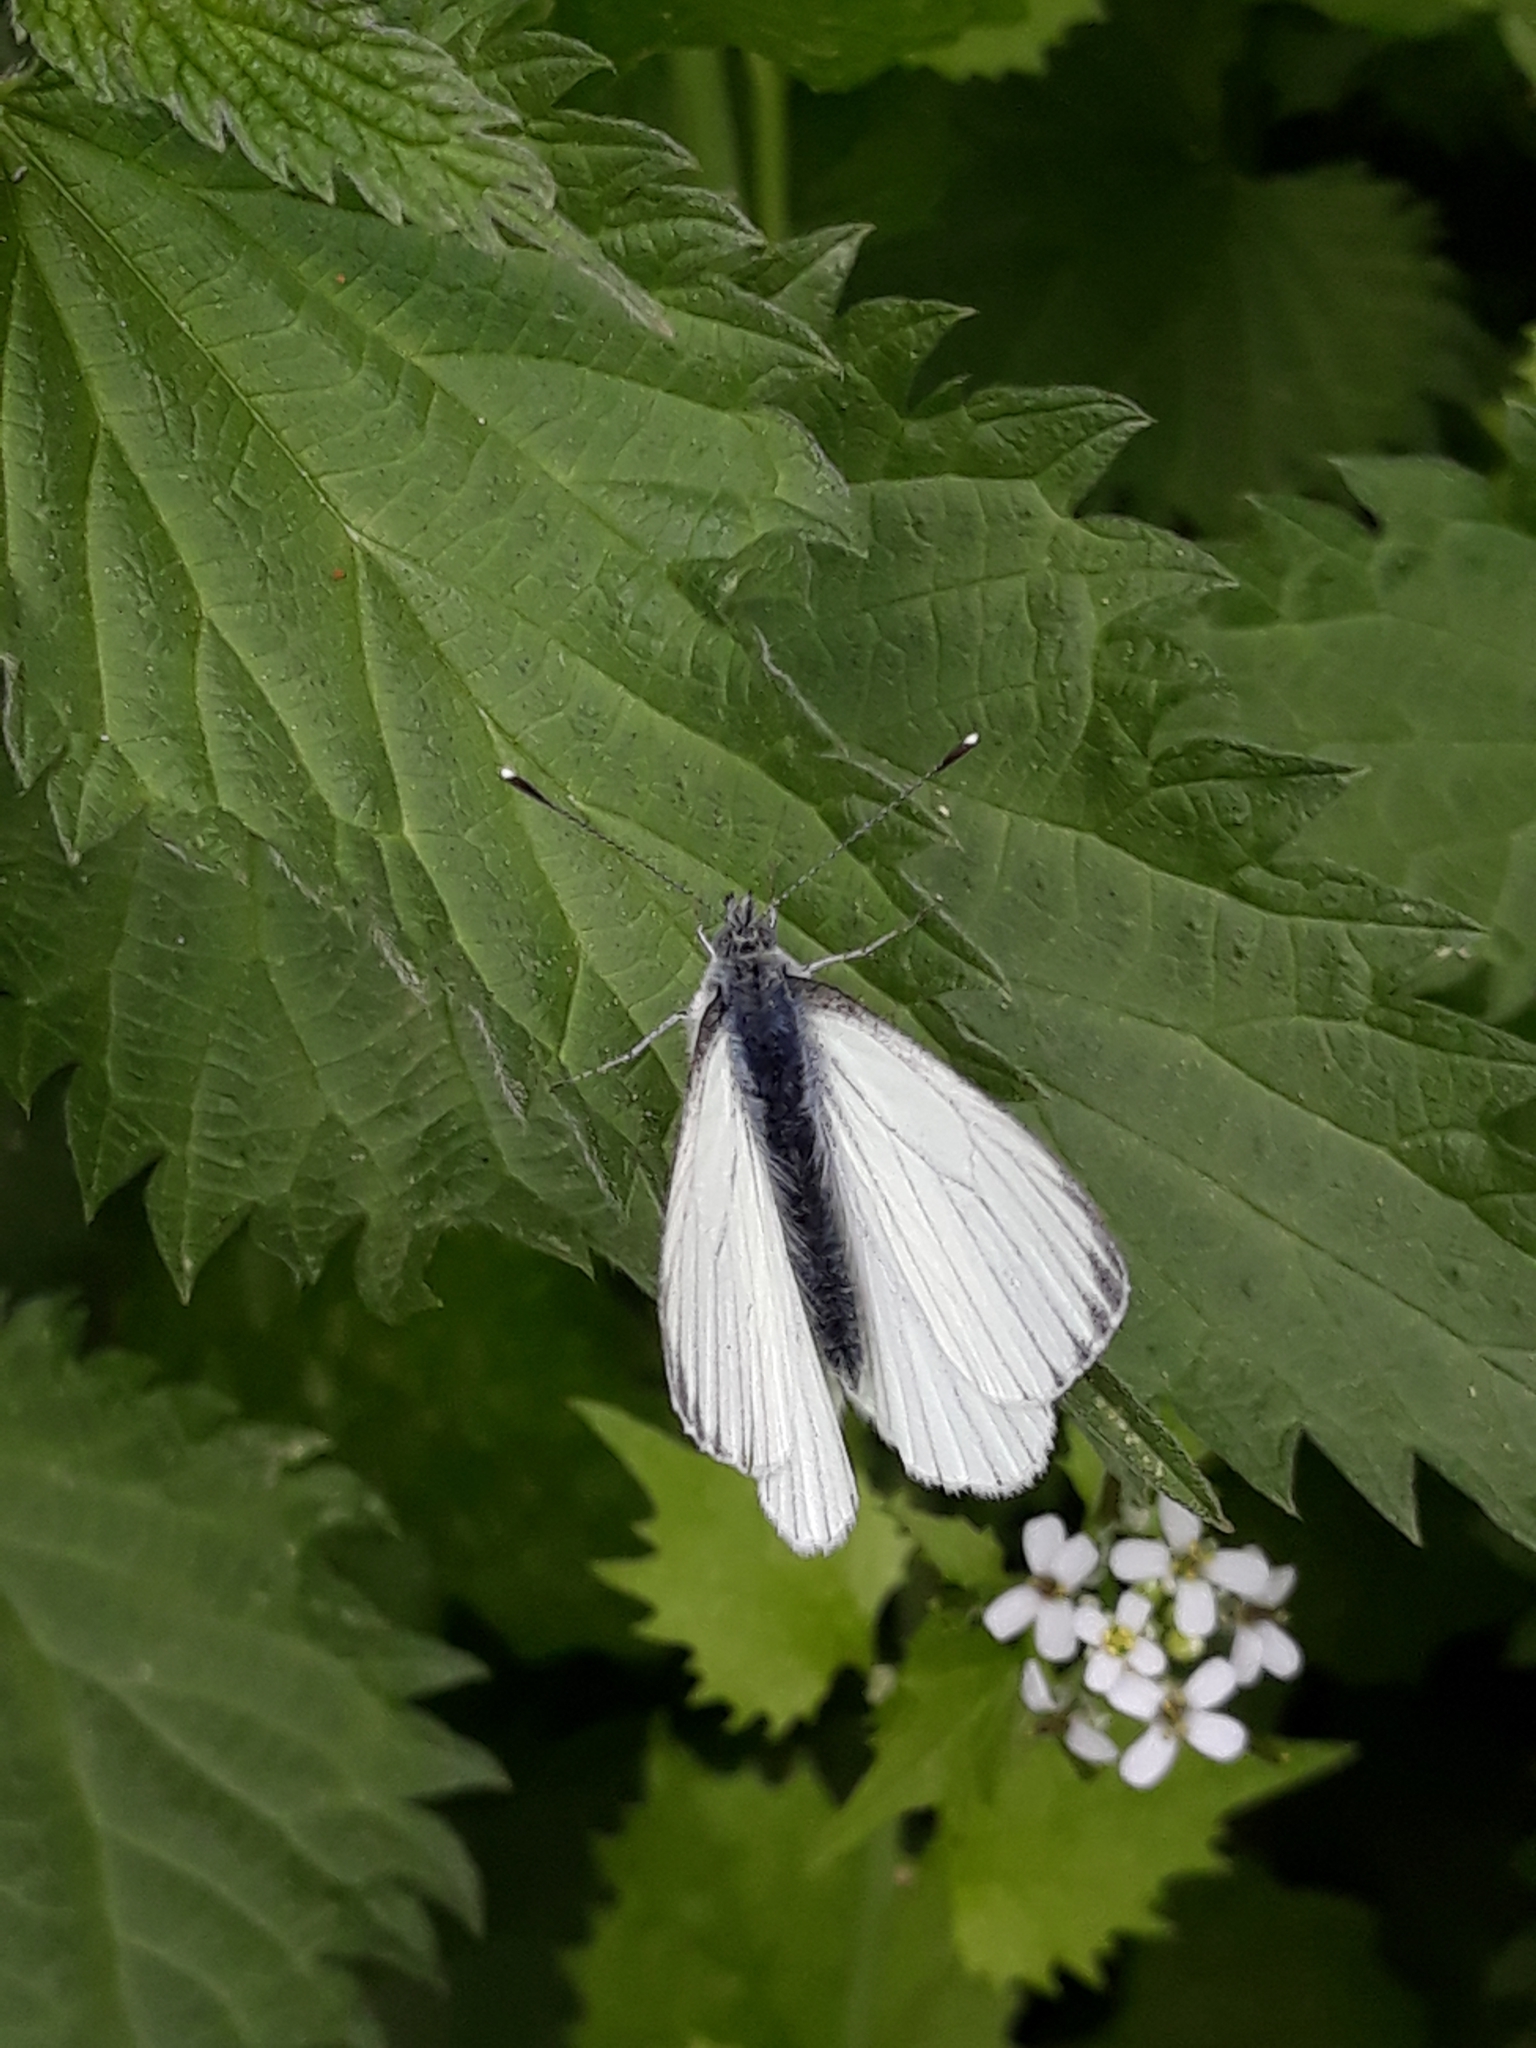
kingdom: Animalia
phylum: Arthropoda
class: Insecta
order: Lepidoptera
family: Pieridae
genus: Pieris
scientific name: Pieris napi
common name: Green-veined white
